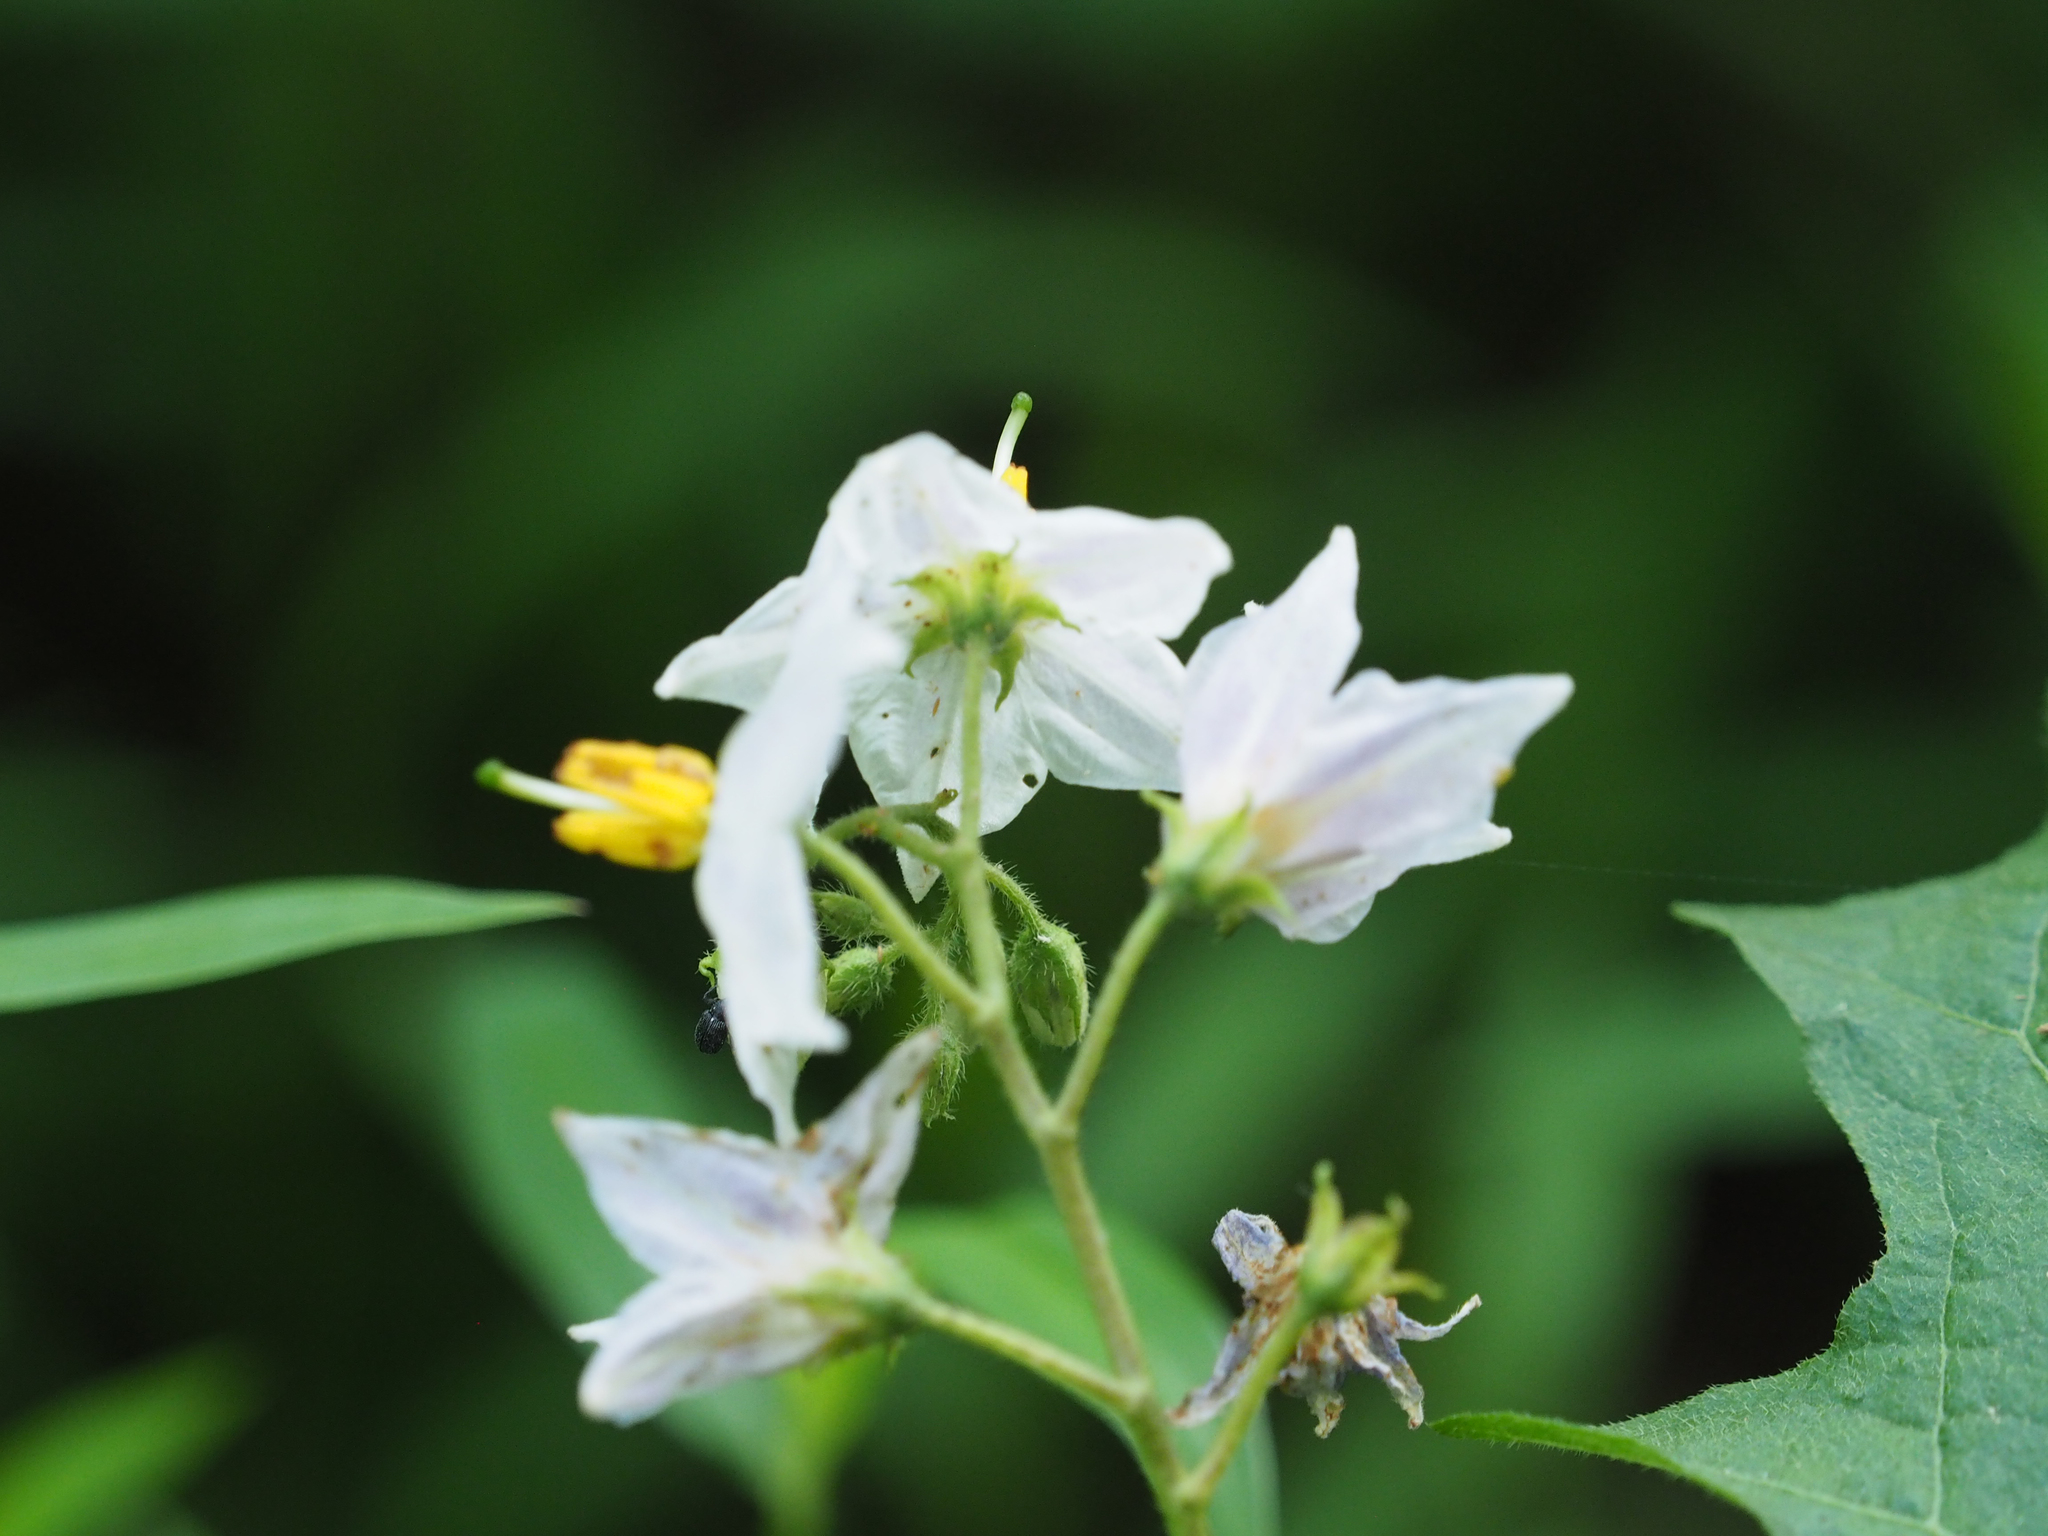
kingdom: Plantae
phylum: Tracheophyta
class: Magnoliopsida
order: Solanales
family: Solanaceae
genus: Solanum
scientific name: Solanum carolinense
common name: Horse-nettle
